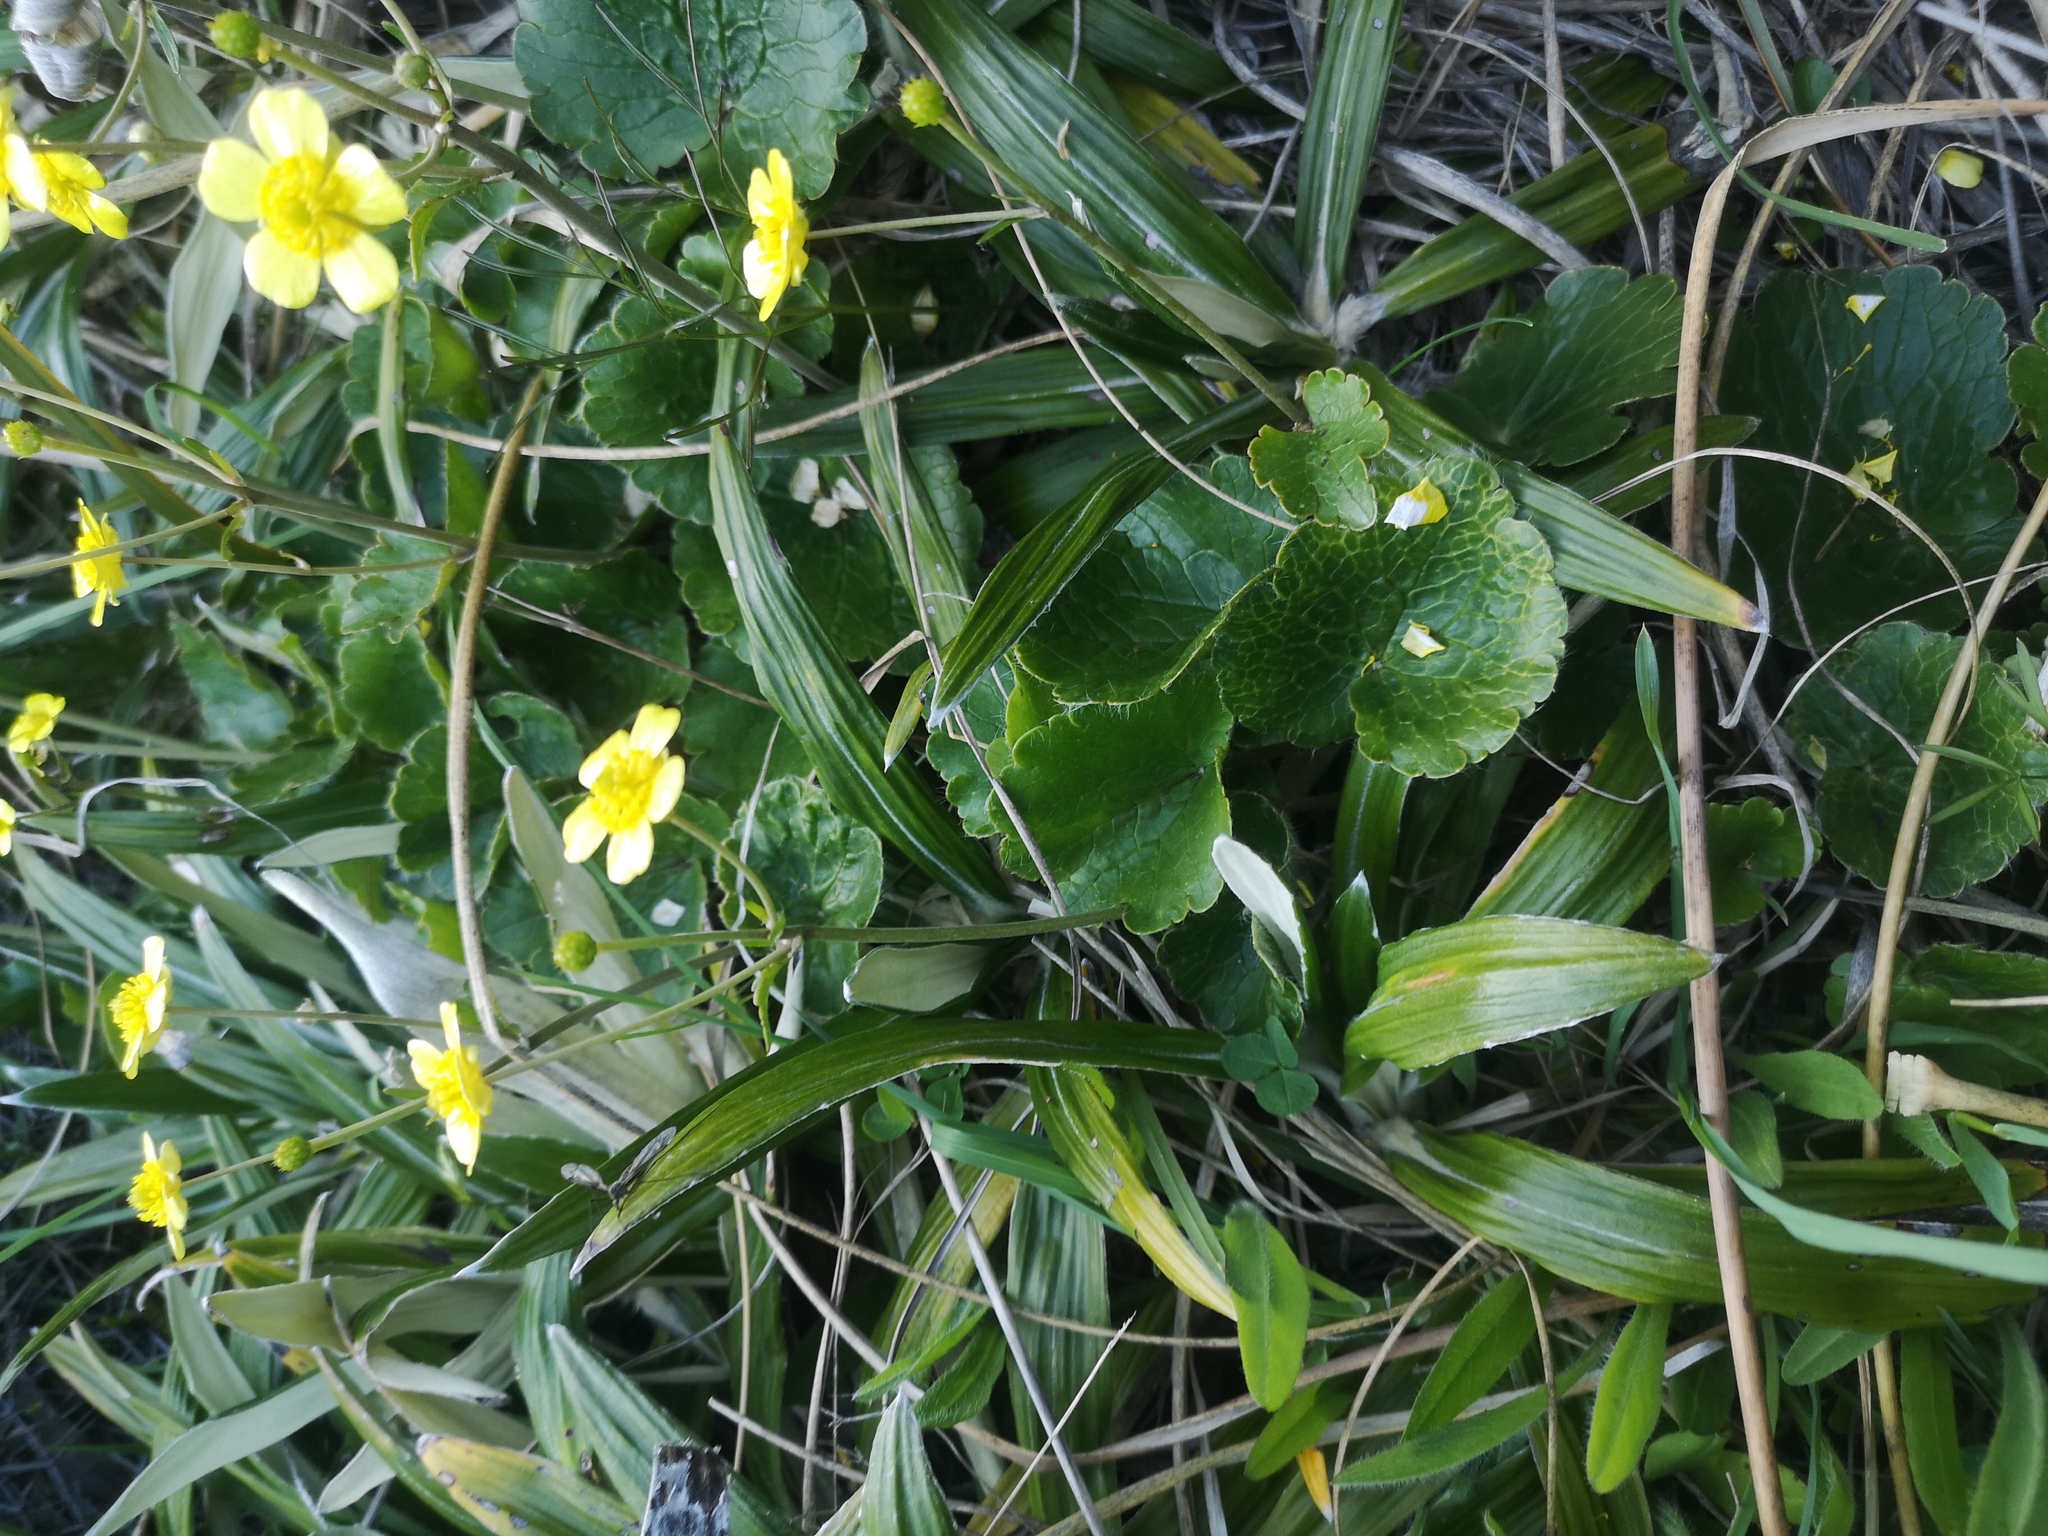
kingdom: Plantae
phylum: Tracheophyta
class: Magnoliopsida
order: Ranunculales
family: Ranunculaceae
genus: Ranunculus
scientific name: Ranunculus insignis
